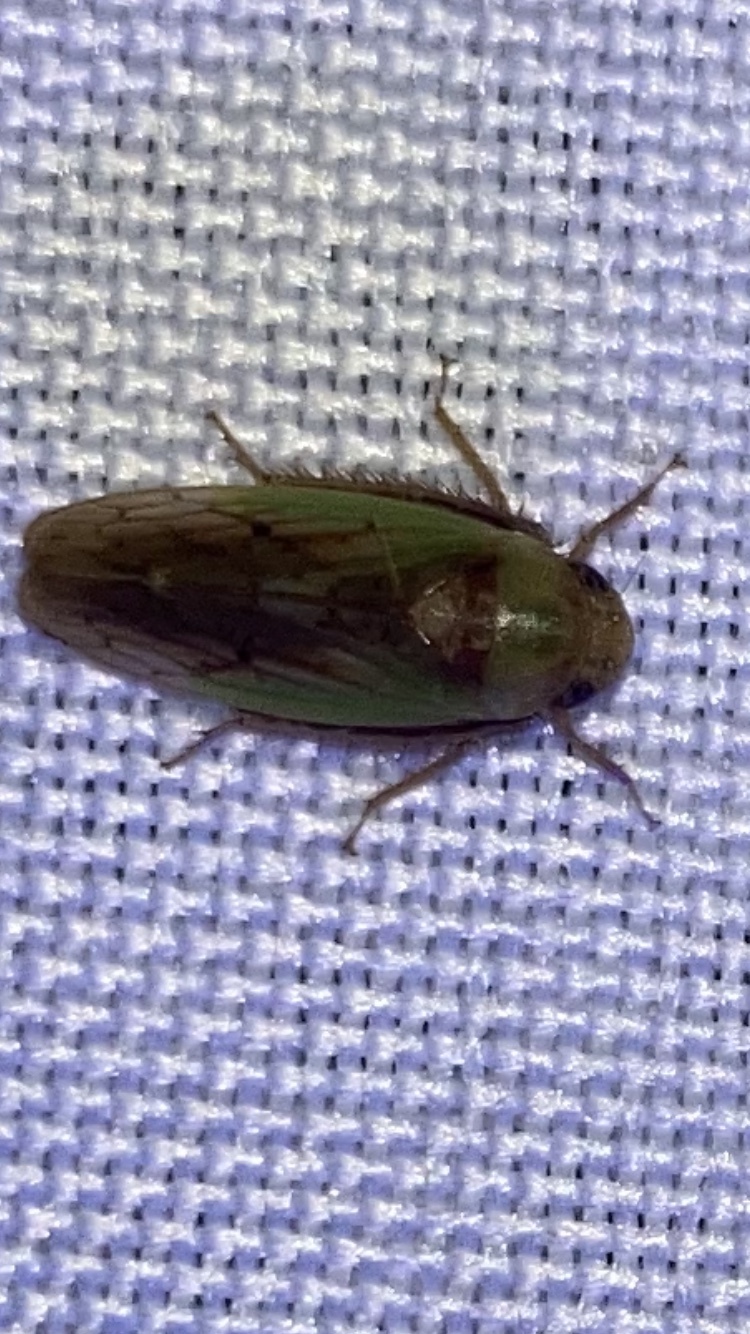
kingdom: Animalia
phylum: Arthropoda
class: Insecta
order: Hemiptera
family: Cicadellidae
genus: Ponana
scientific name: Ponana pectoralis
